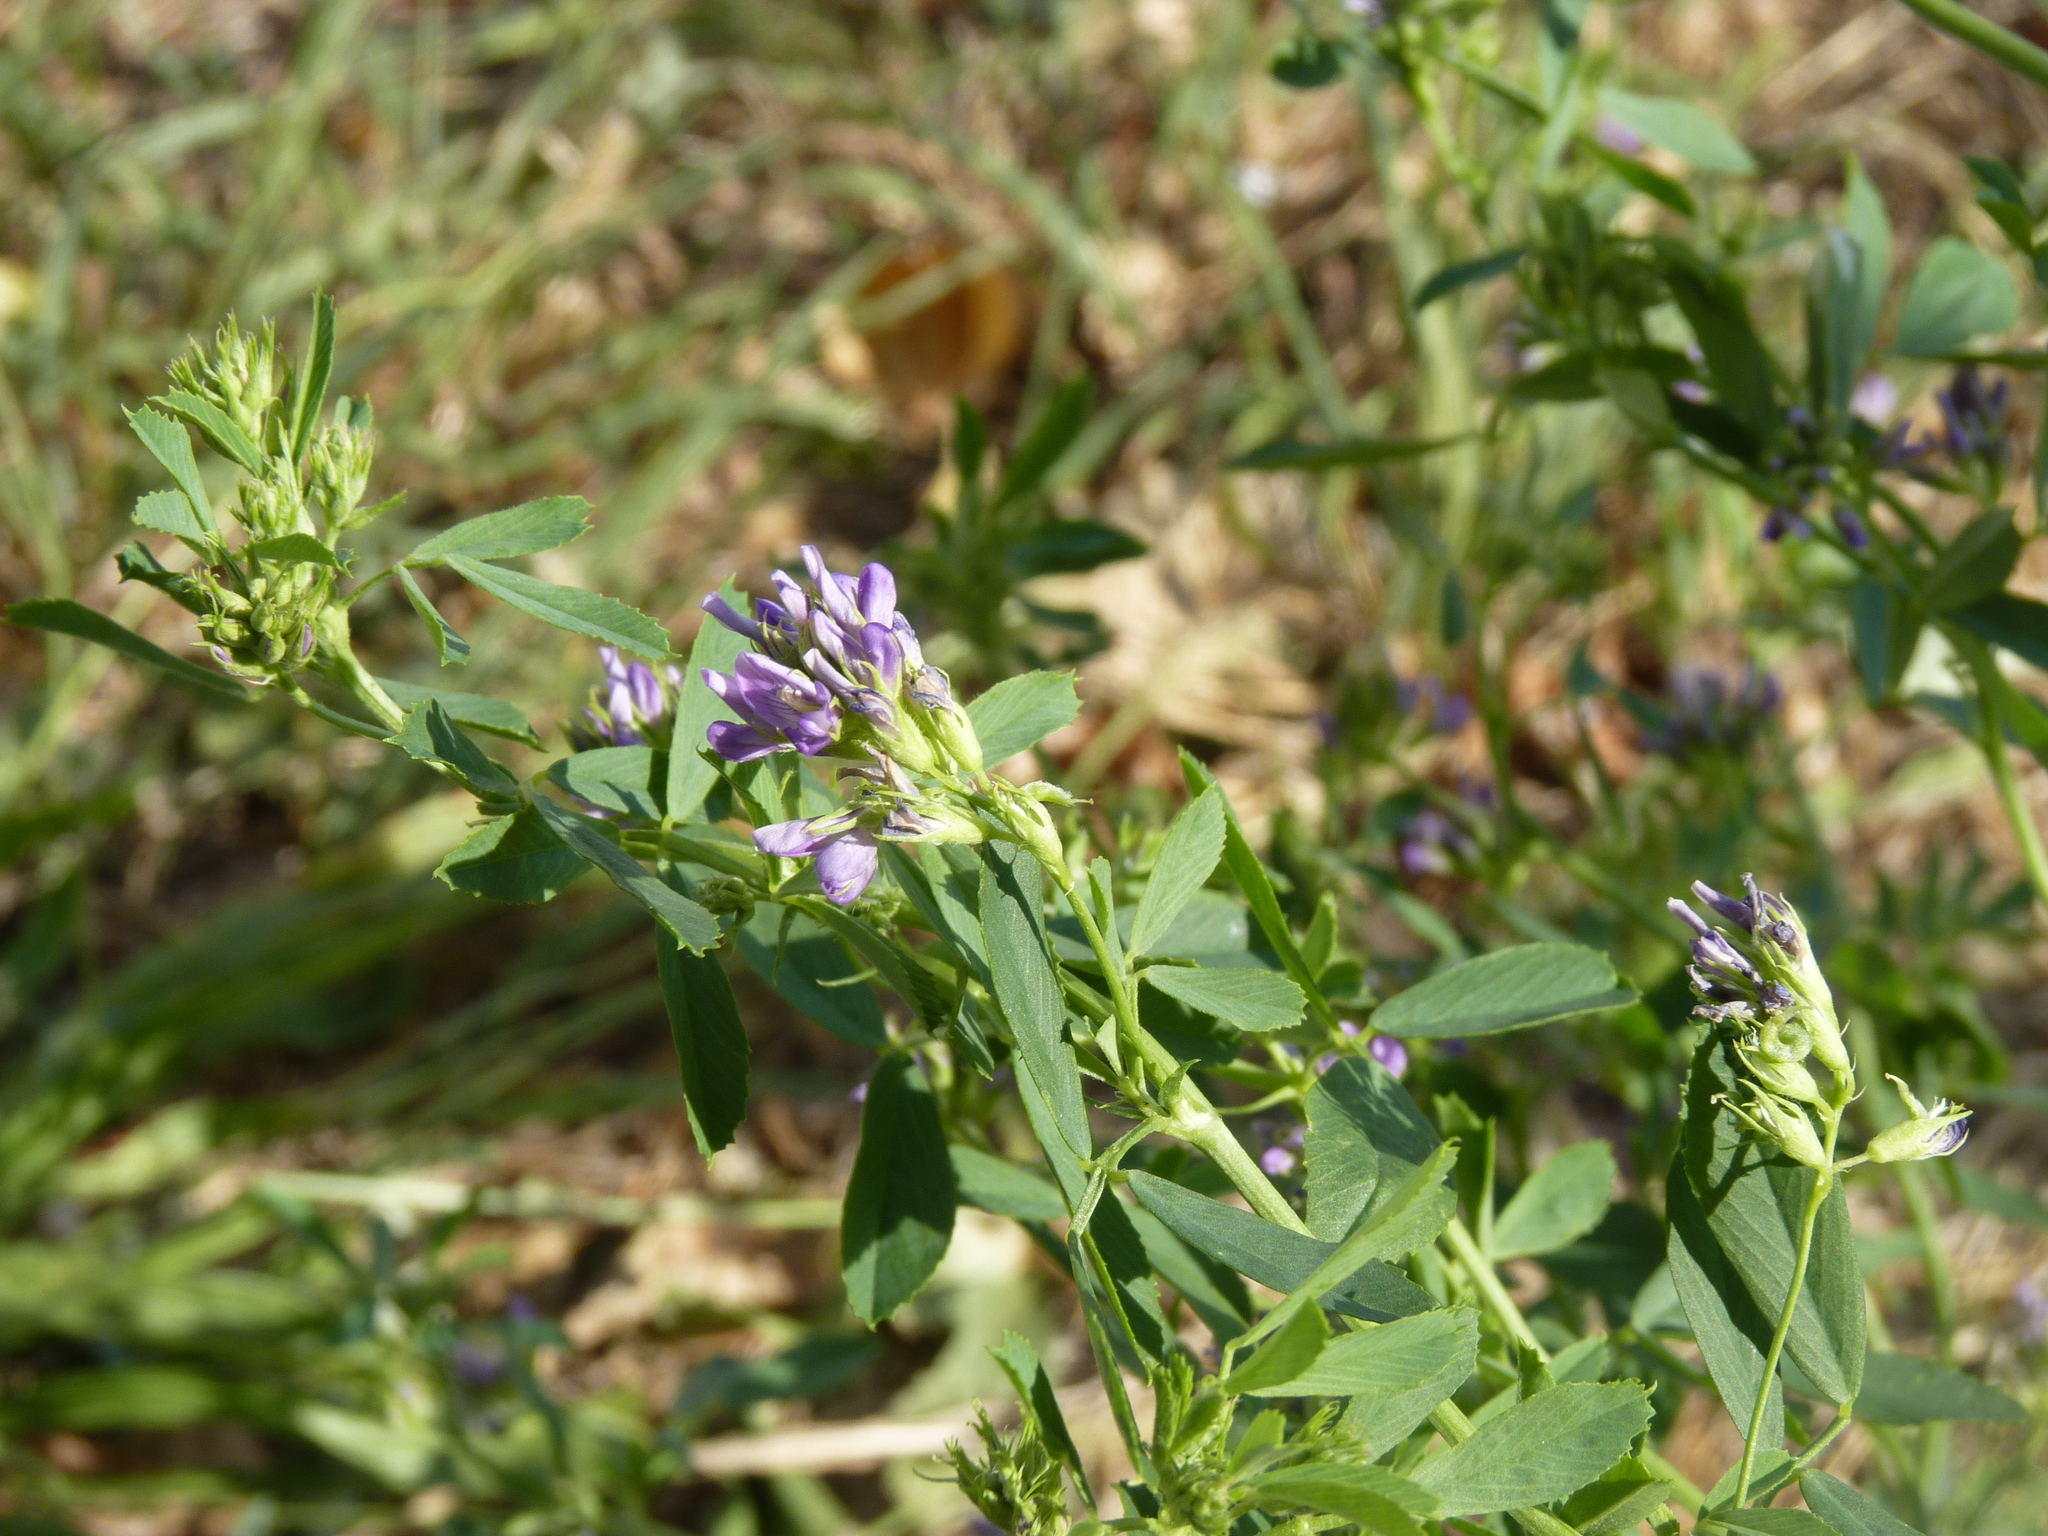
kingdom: Plantae
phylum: Tracheophyta
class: Magnoliopsida
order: Fabales
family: Fabaceae
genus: Medicago
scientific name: Medicago sativa
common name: Alfalfa
